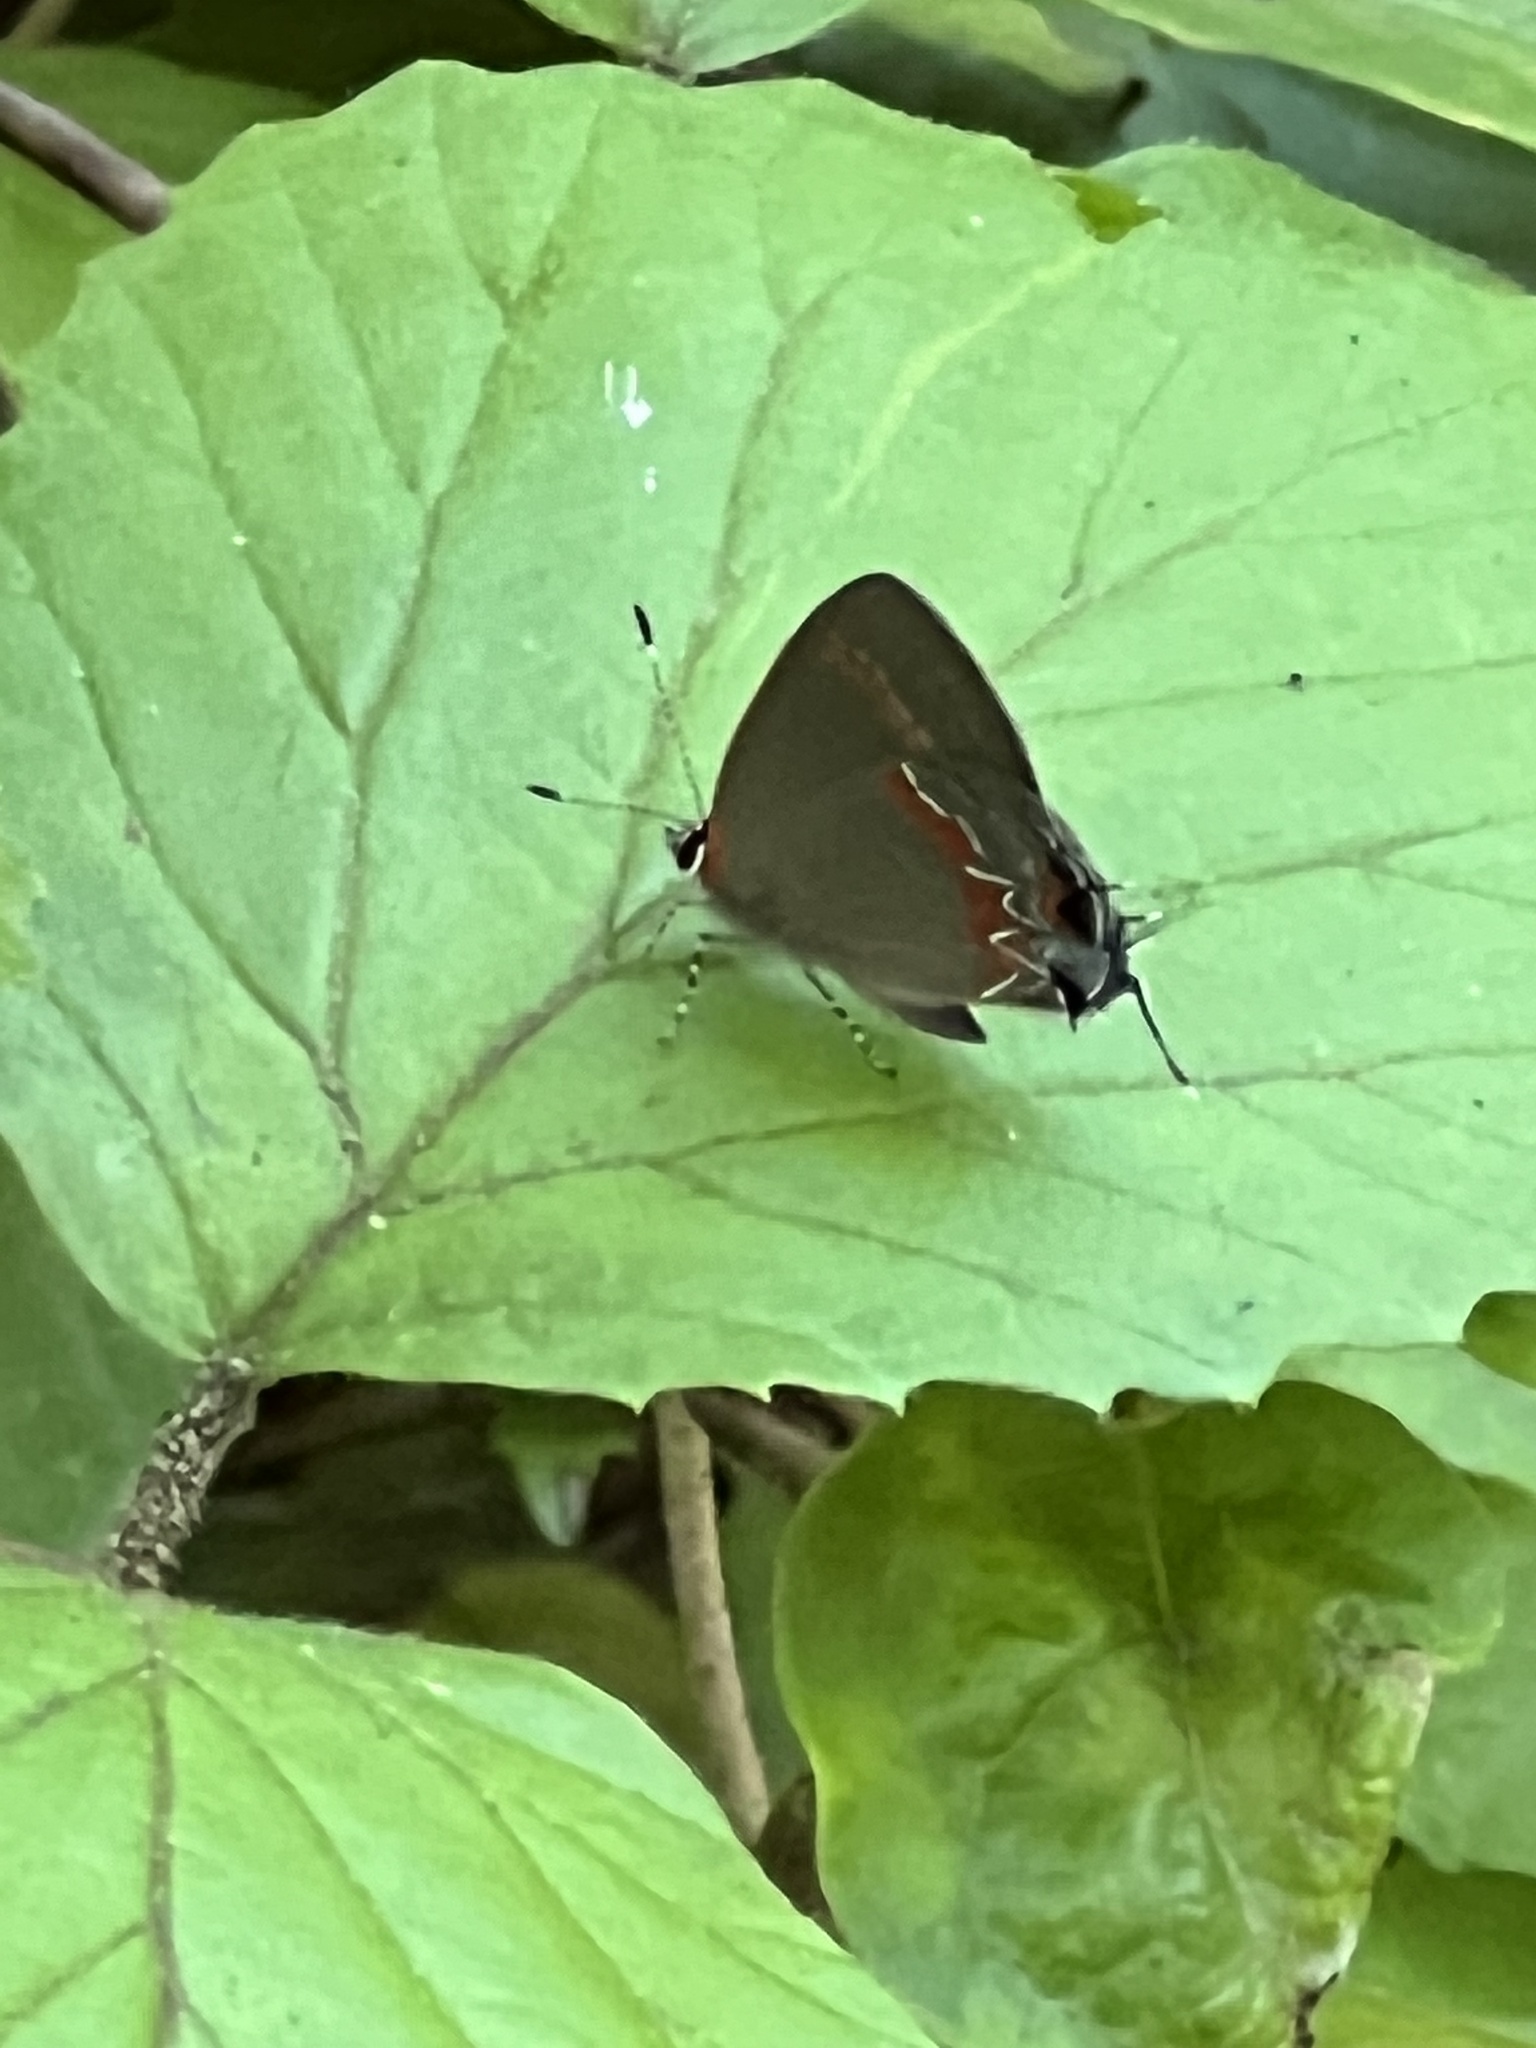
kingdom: Animalia
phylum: Arthropoda
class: Insecta
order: Lepidoptera
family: Lycaenidae
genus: Calycopis
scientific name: Calycopis cecrops
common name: Red-banded hairstreak
